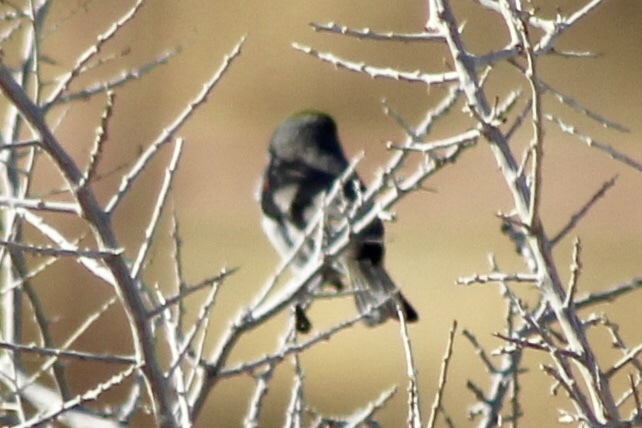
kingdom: Animalia
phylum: Chordata
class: Aves
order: Passeriformes
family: Remizidae
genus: Auriparus
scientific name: Auriparus flaviceps
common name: Verdin
